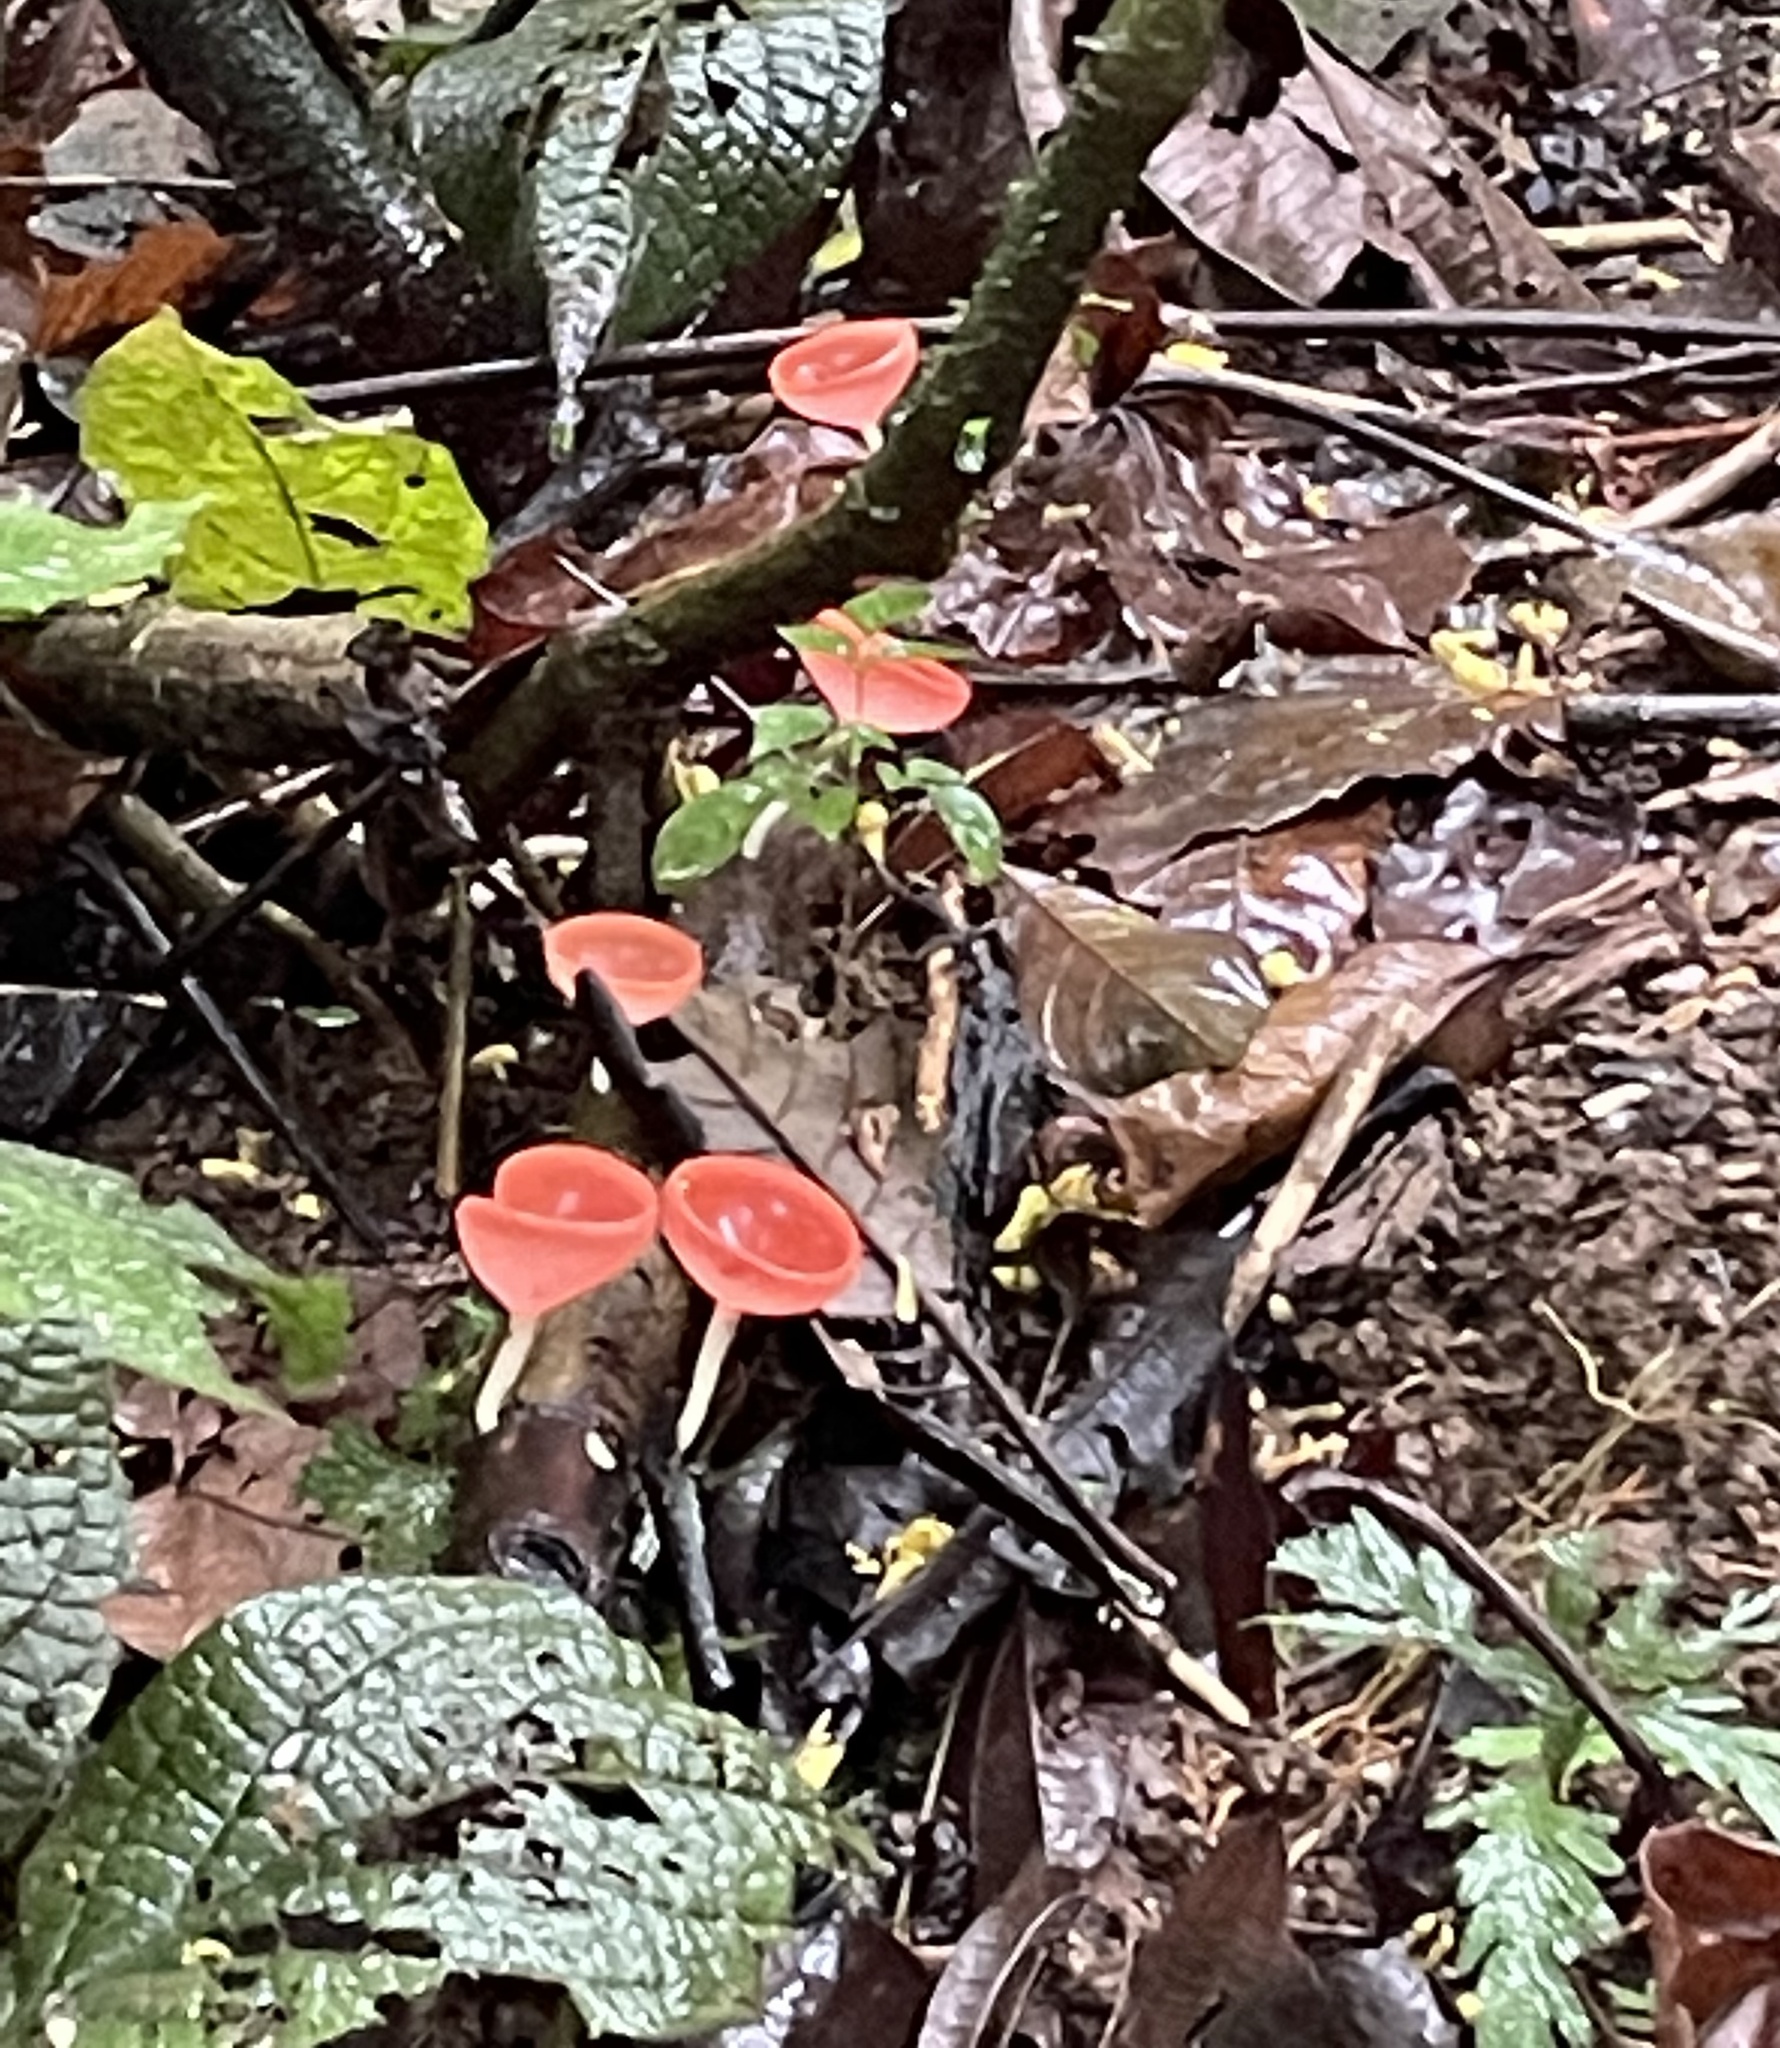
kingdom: Fungi
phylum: Ascomycota
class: Pezizomycetes
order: Pezizales
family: Sarcoscyphaceae
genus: Cookeina
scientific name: Cookeina speciosa
